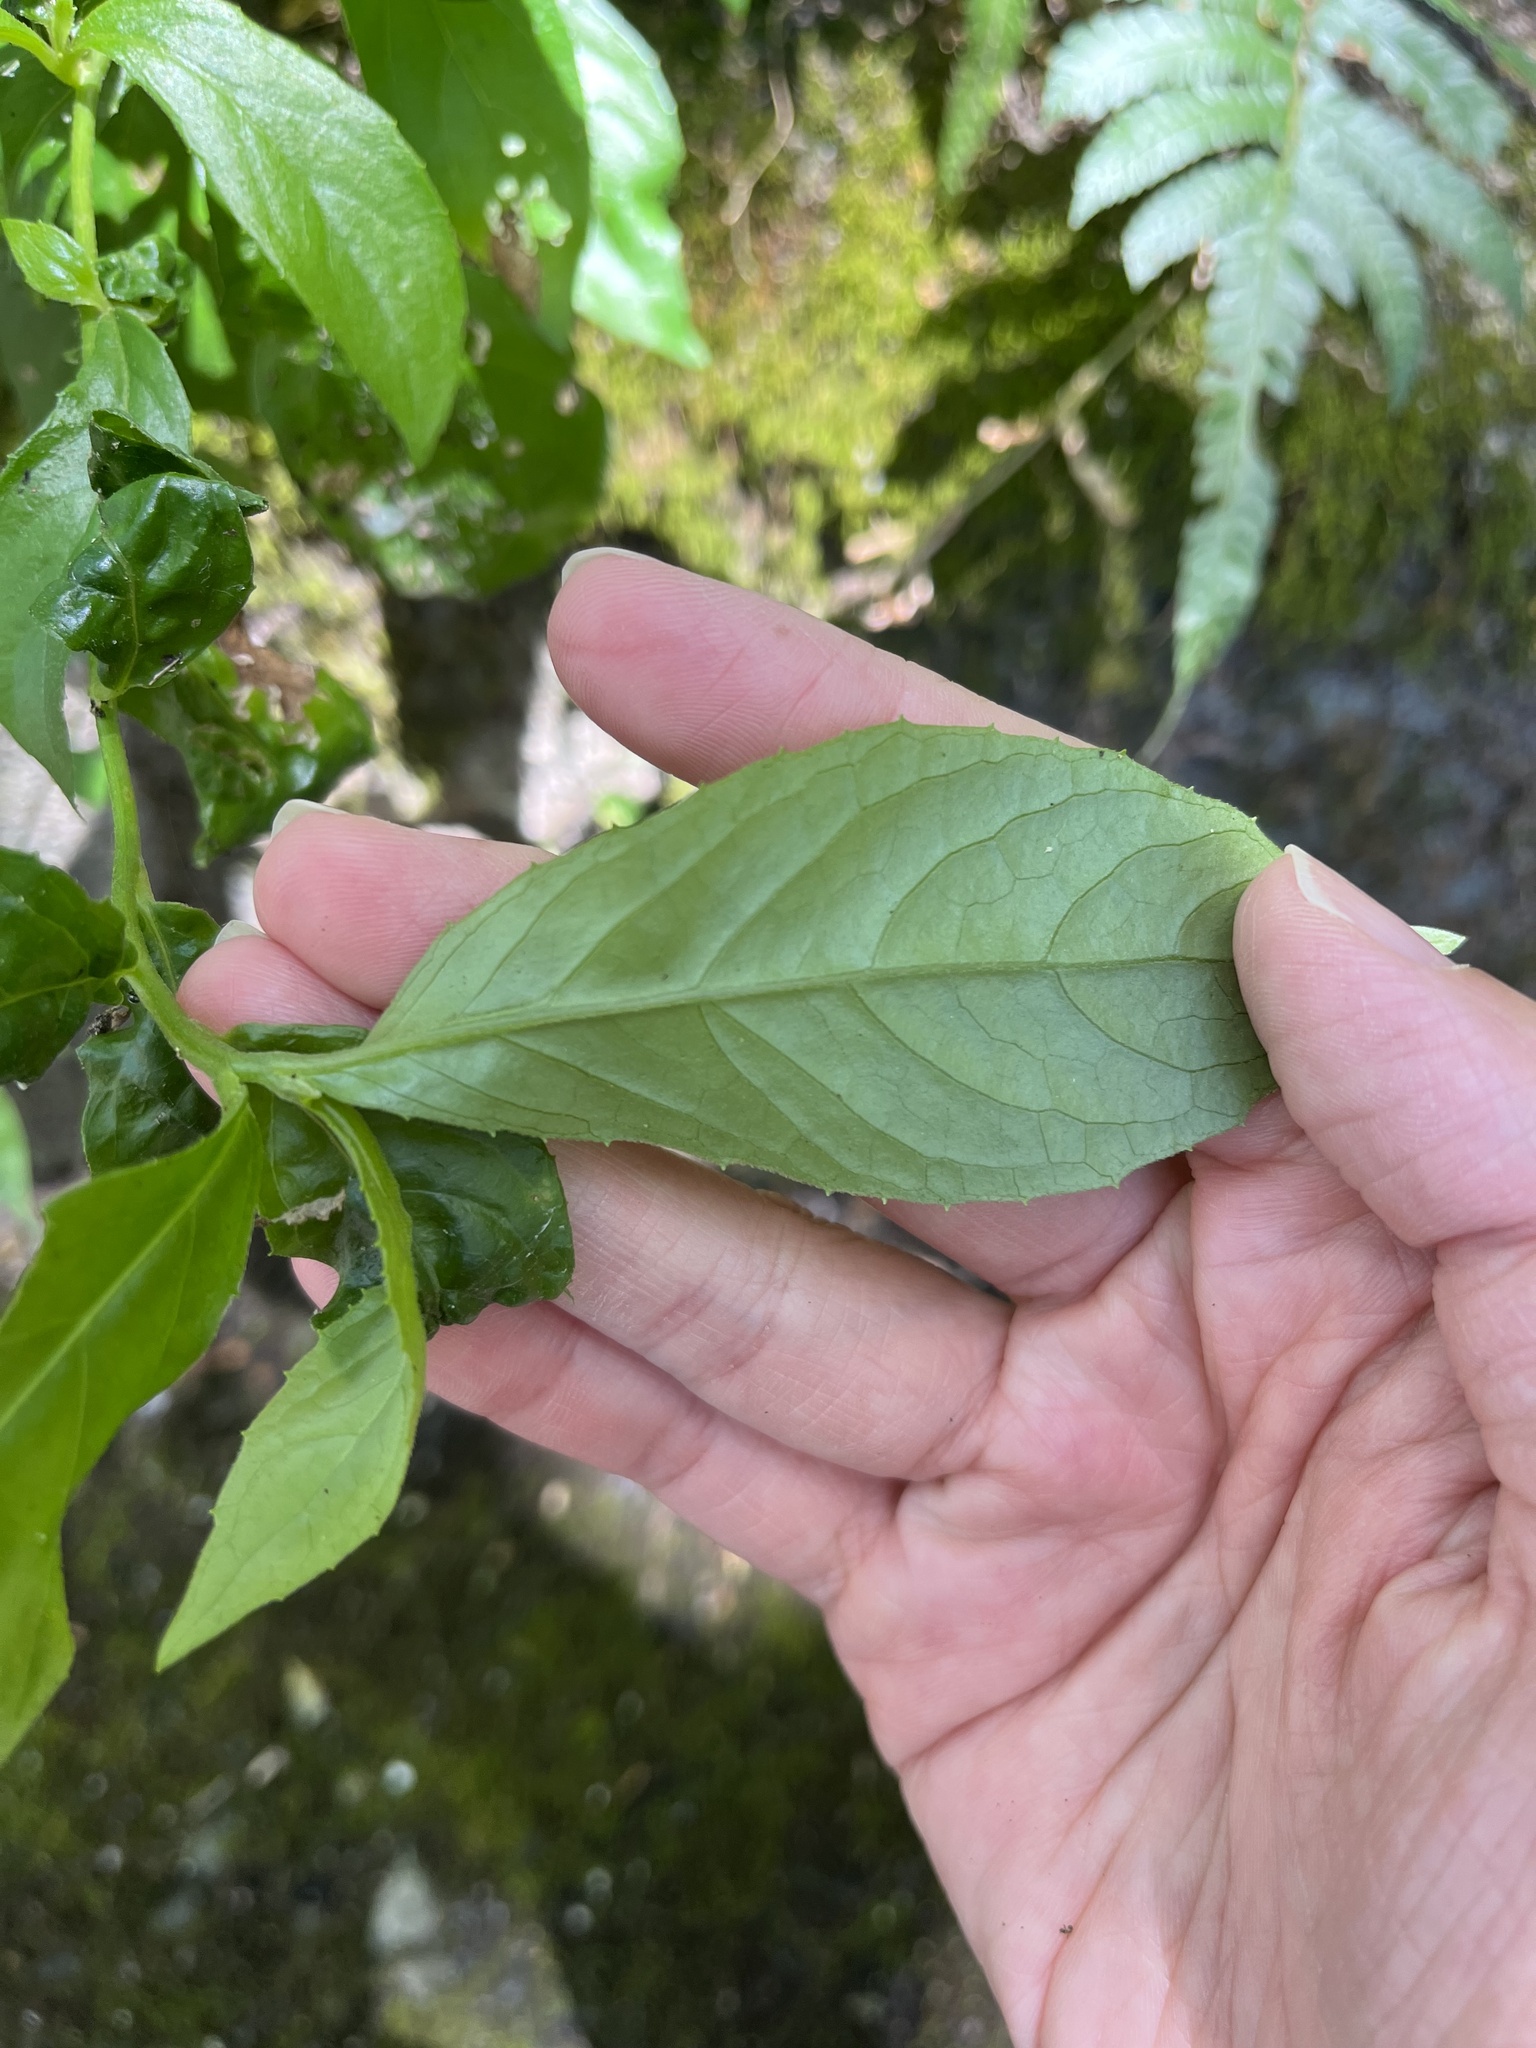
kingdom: Plantae
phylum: Tracheophyta
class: Magnoliopsida
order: Asterales
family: Asteraceae
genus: Blumea
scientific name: Blumea megacephala
